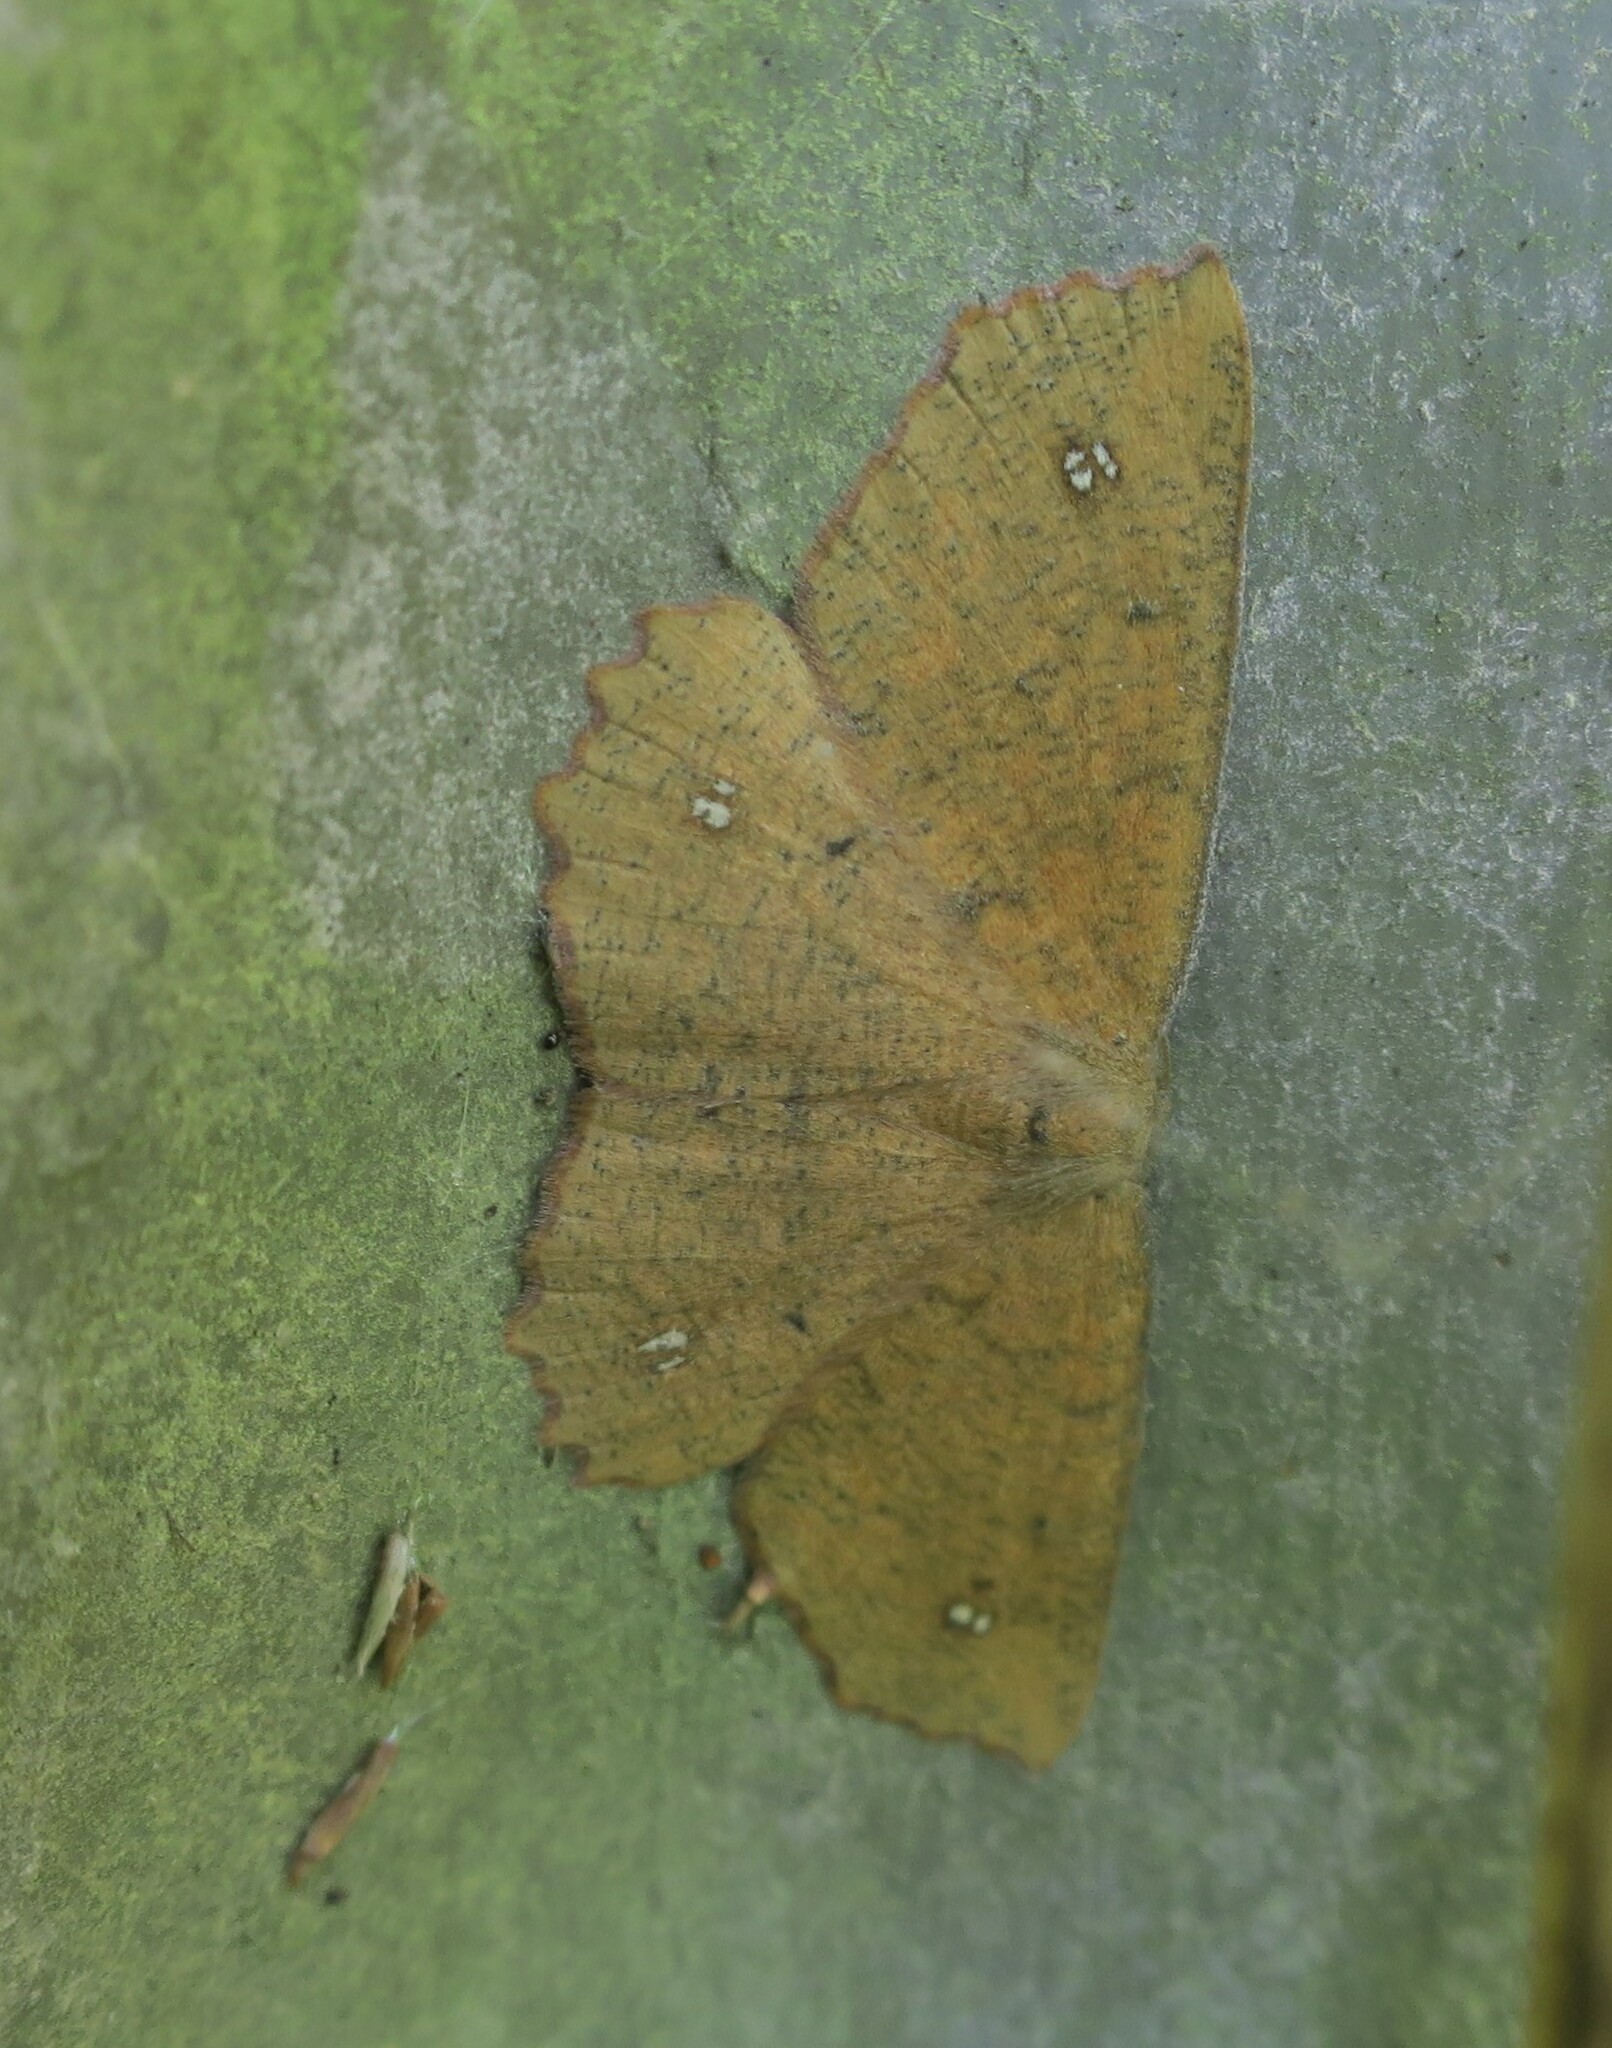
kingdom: Animalia
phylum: Arthropoda
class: Insecta
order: Lepidoptera
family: Geometridae
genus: Xyridacma
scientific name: Xyridacma ustaria
